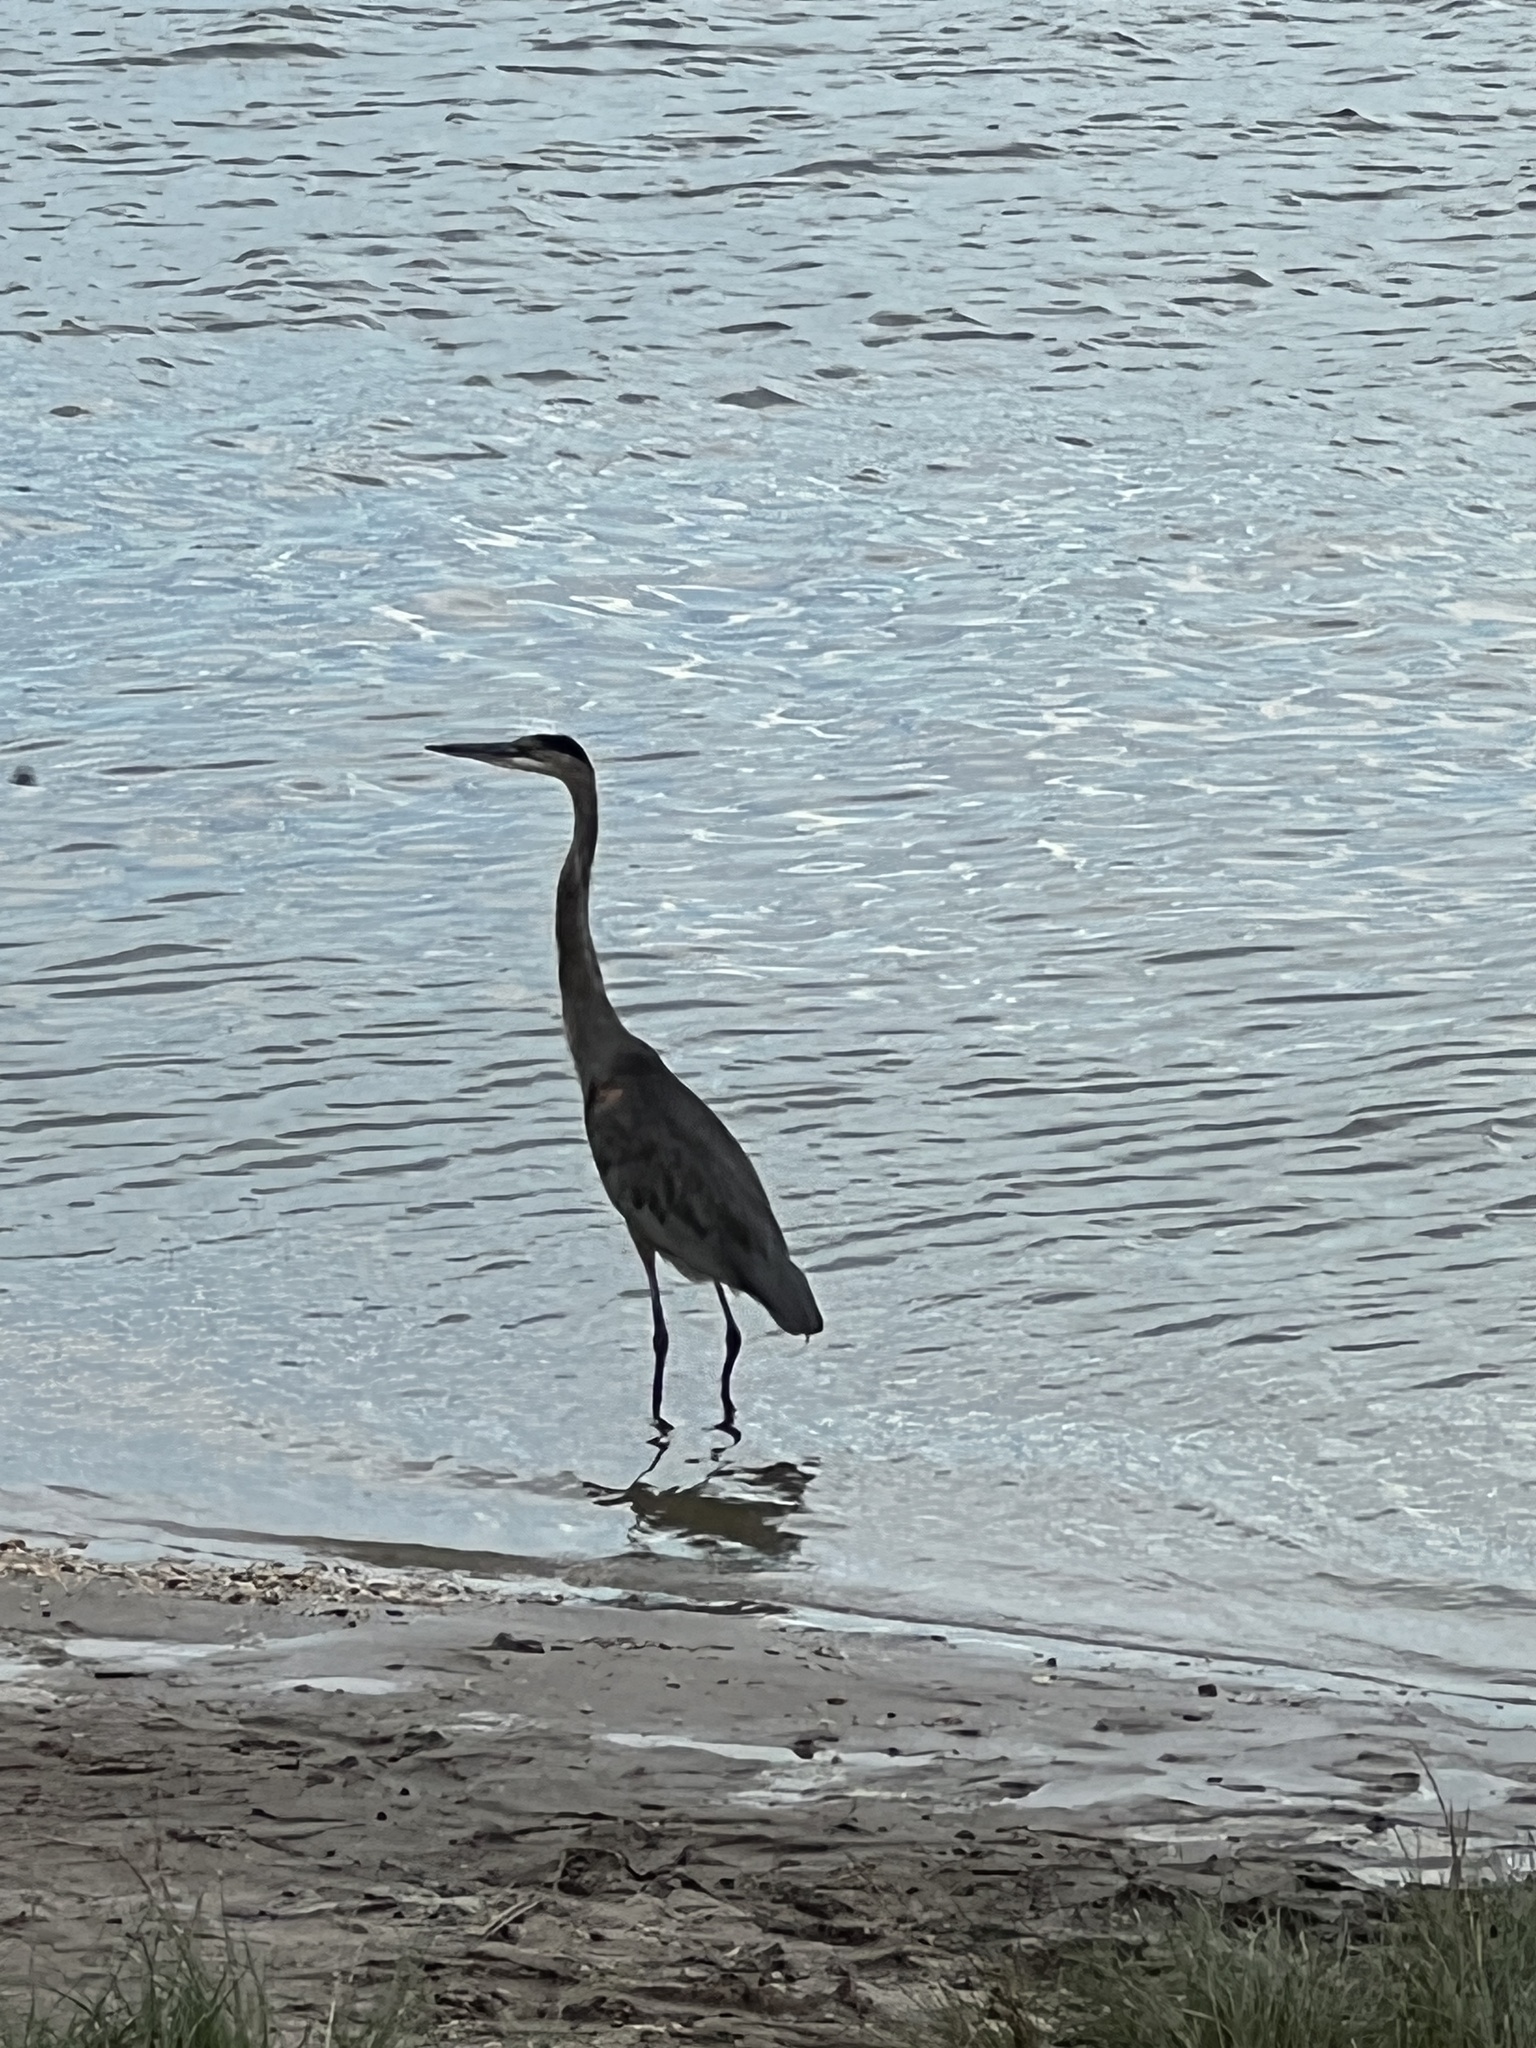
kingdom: Animalia
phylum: Chordata
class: Aves
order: Pelecaniformes
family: Ardeidae
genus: Ardea
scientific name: Ardea herodias
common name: Great blue heron
